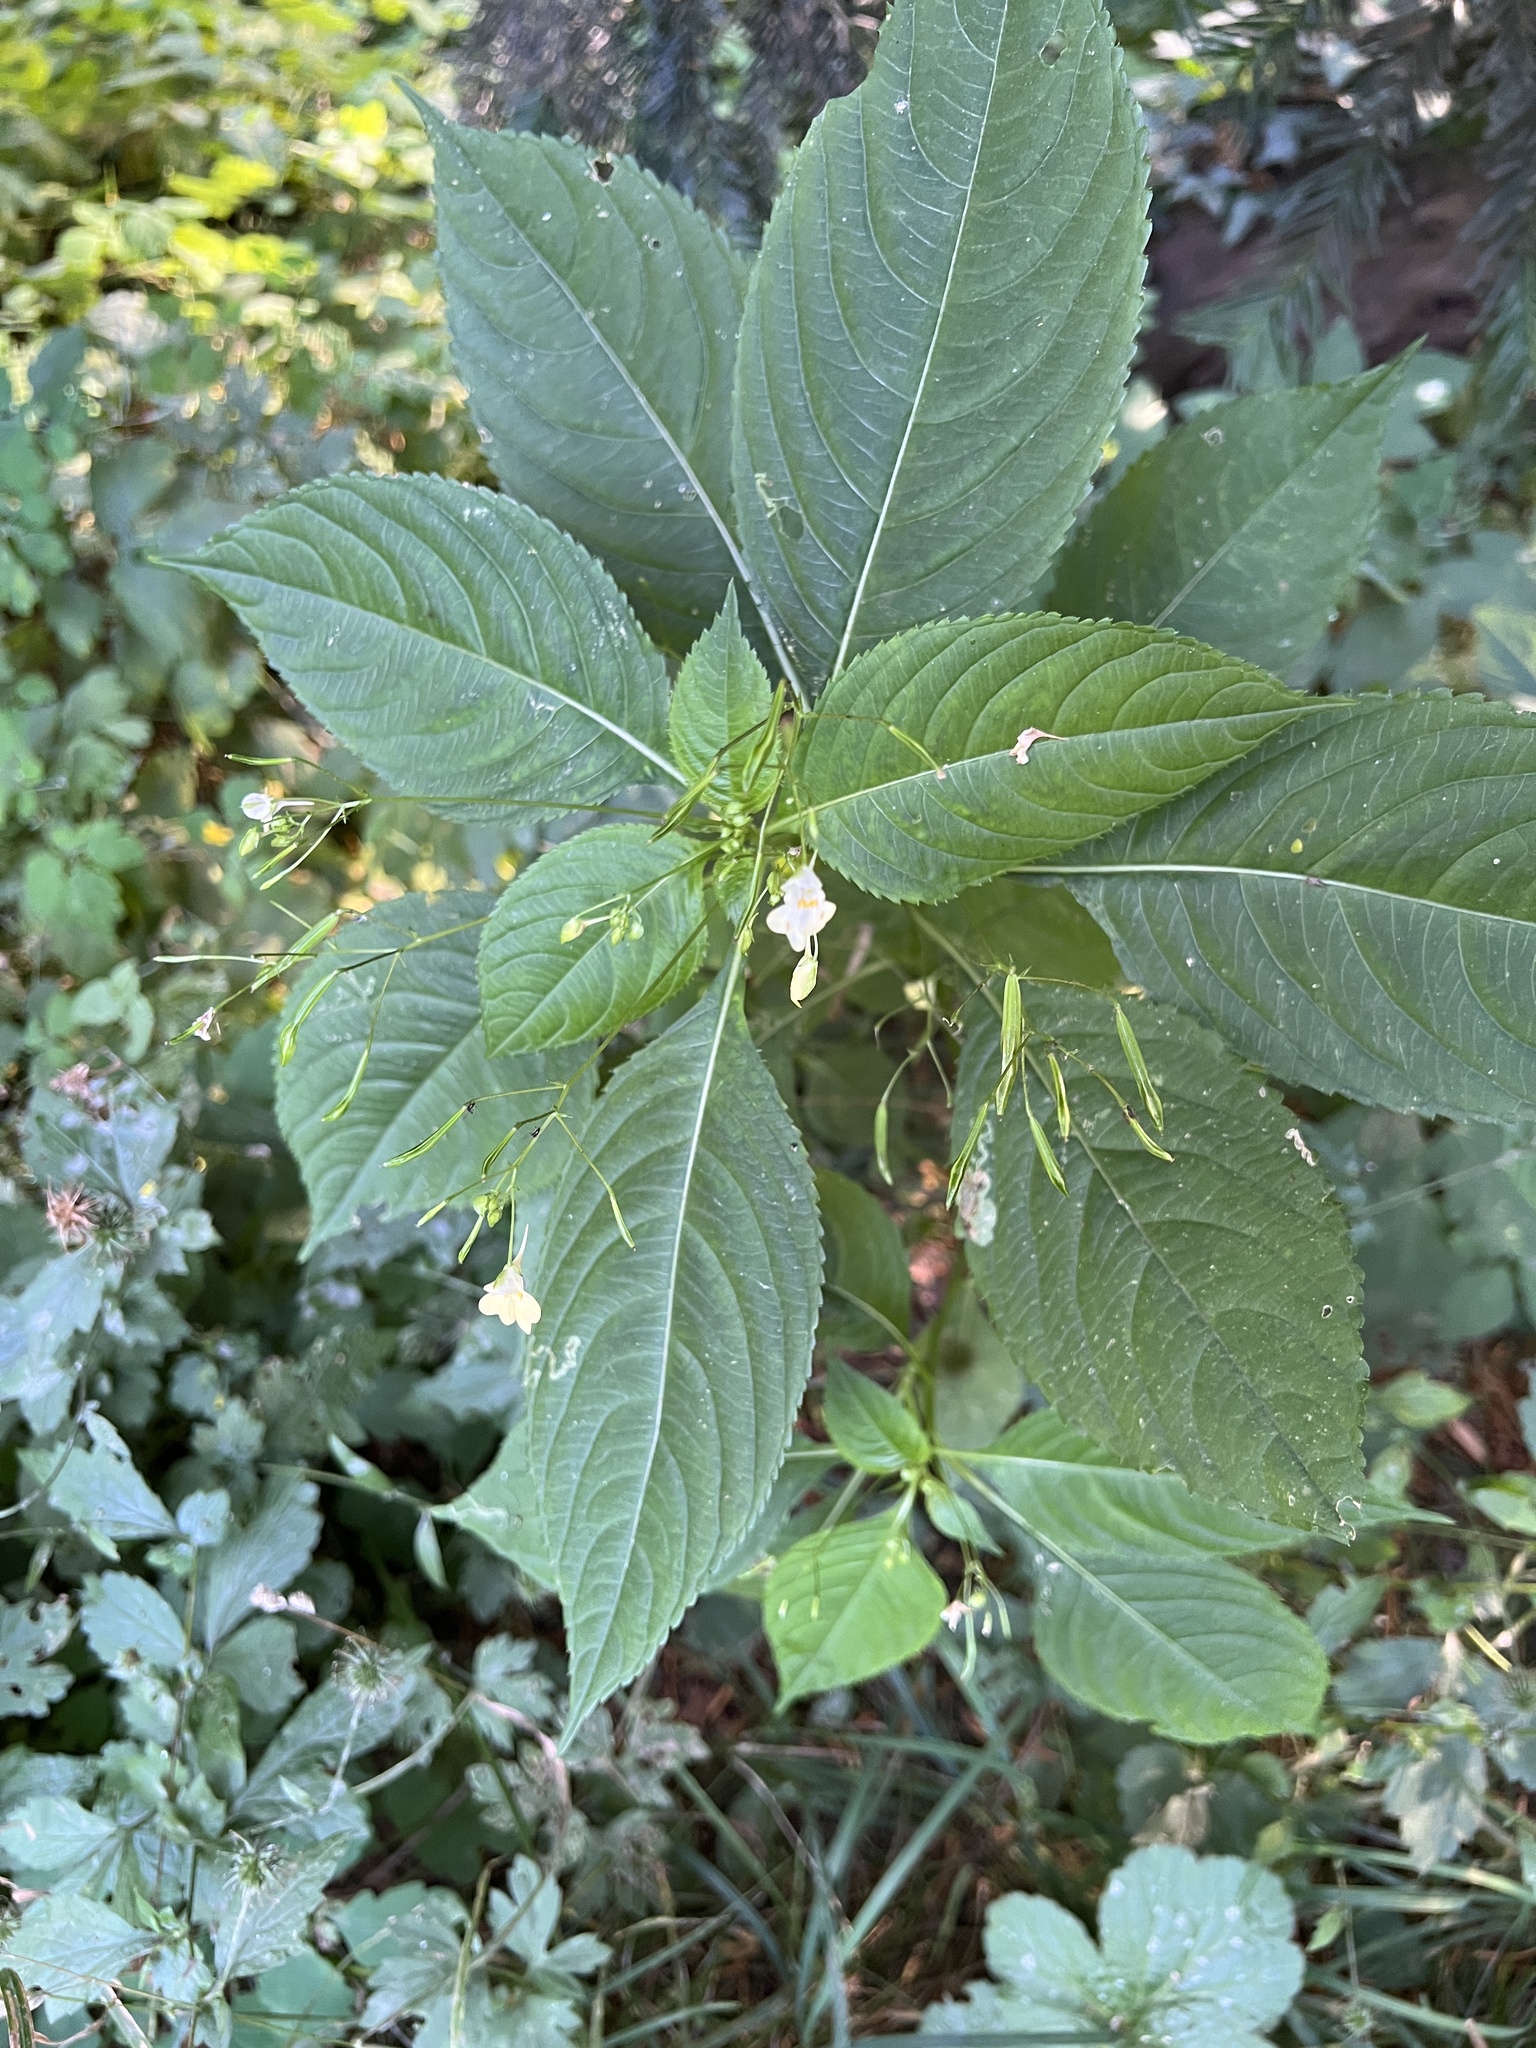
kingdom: Plantae
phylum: Tracheophyta
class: Magnoliopsida
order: Ericales
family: Balsaminaceae
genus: Impatiens
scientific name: Impatiens parviflora
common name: Small balsam
